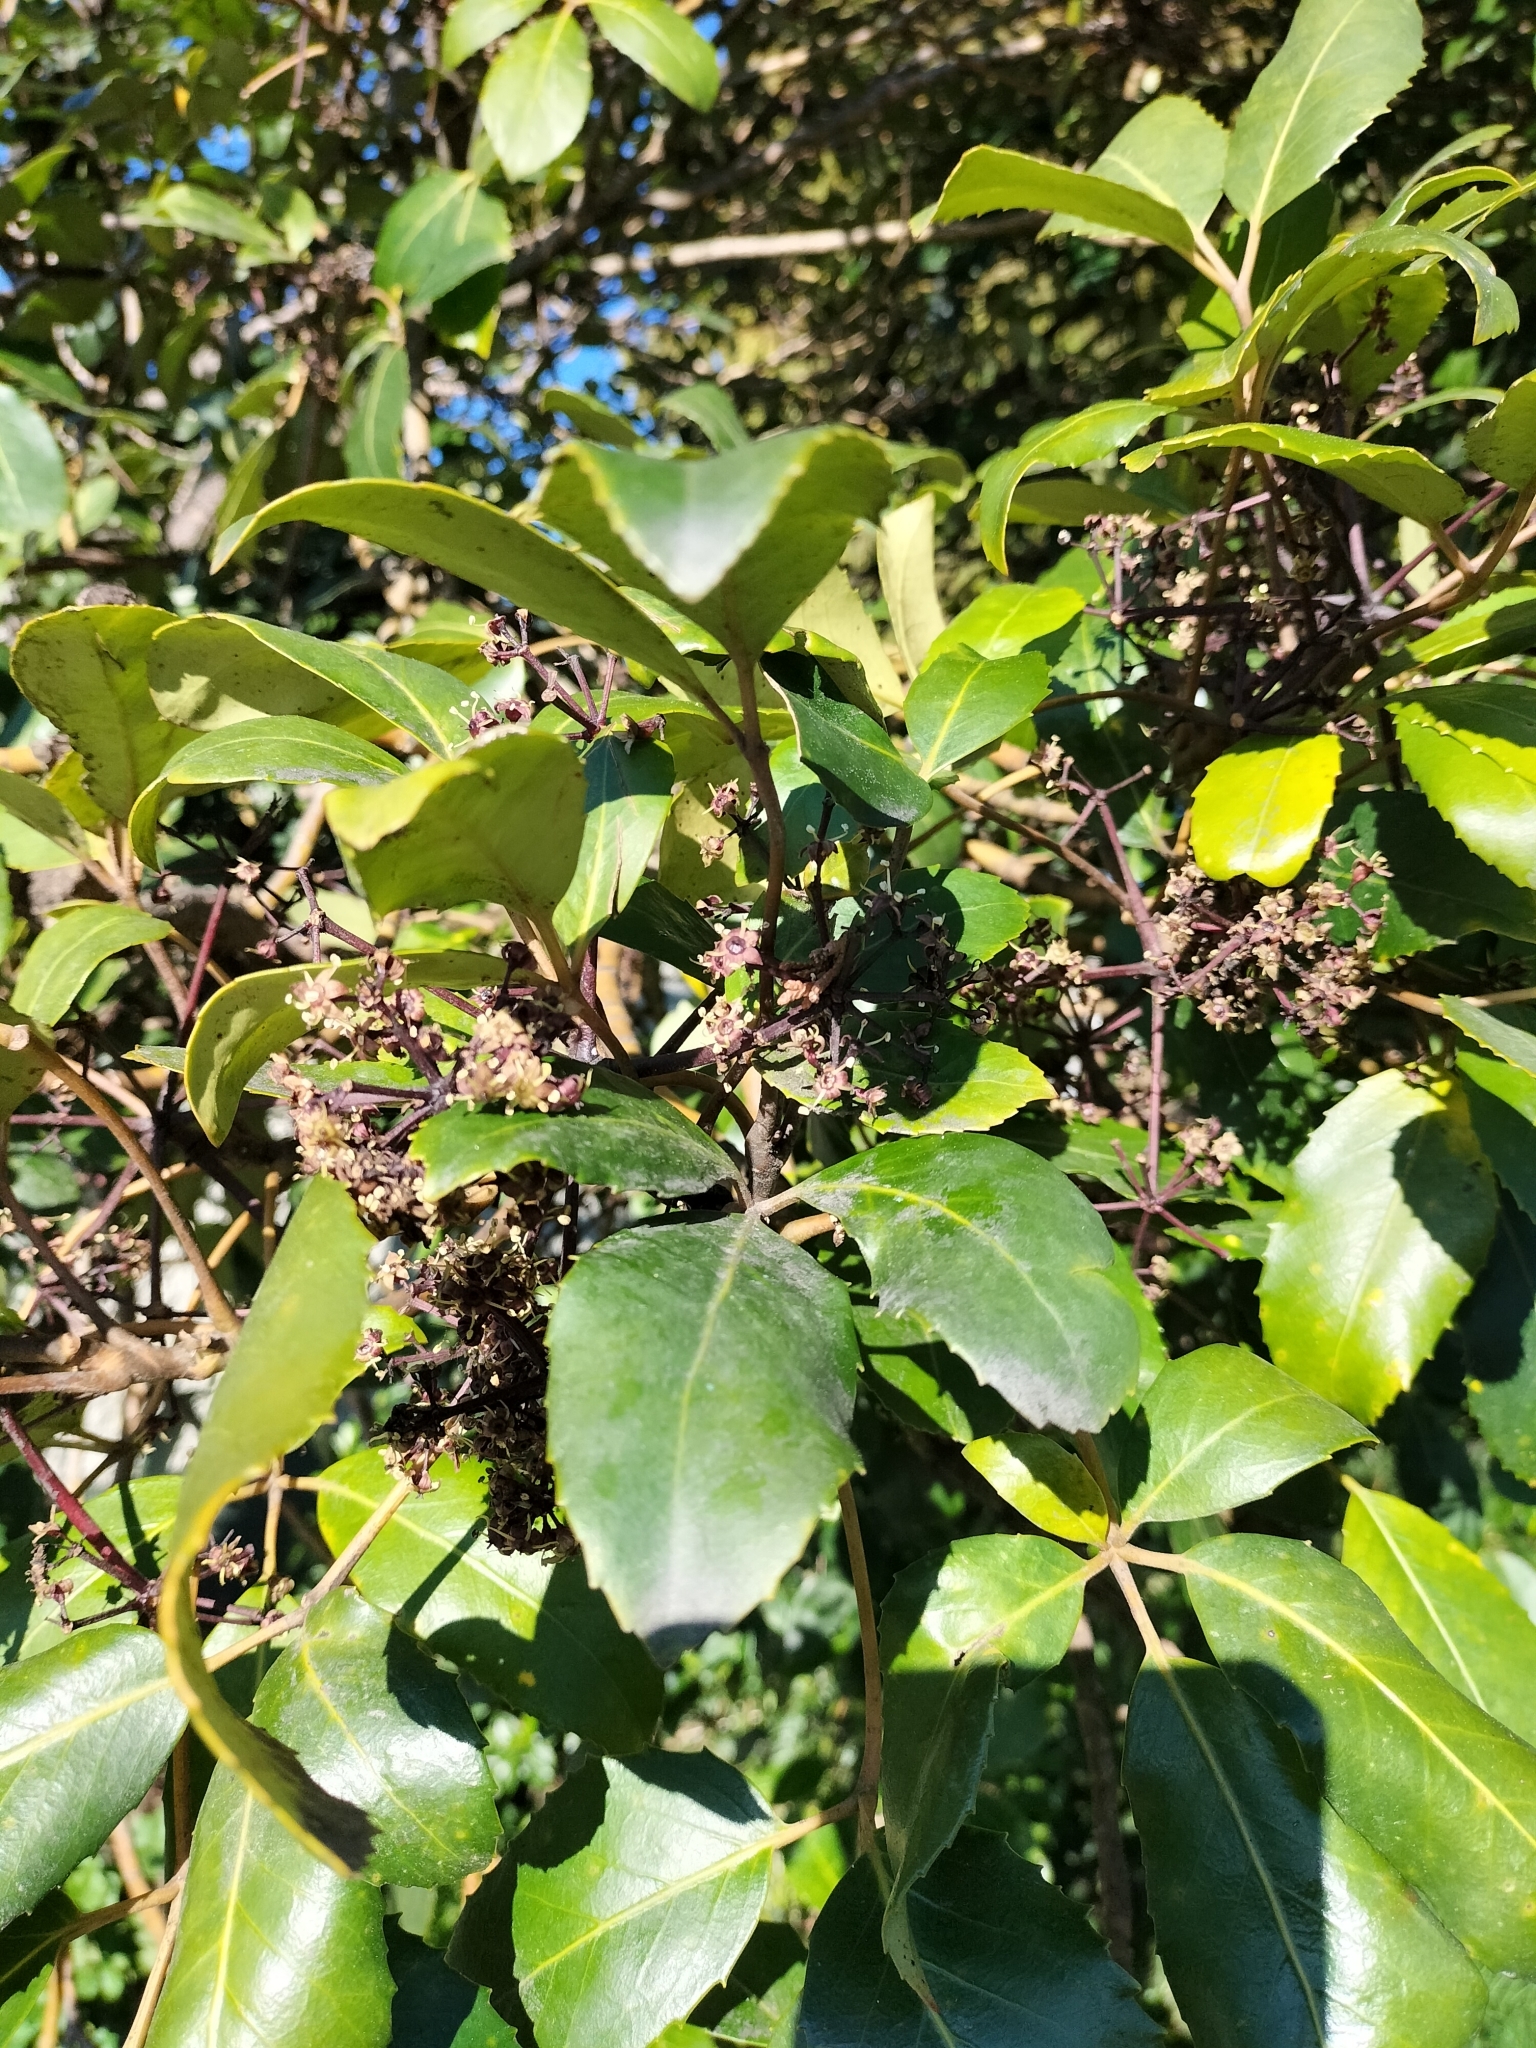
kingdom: Plantae
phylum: Tracheophyta
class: Magnoliopsida
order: Apiales
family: Araliaceae
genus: Neopanax
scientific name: Neopanax arboreus
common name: Five-fingers
